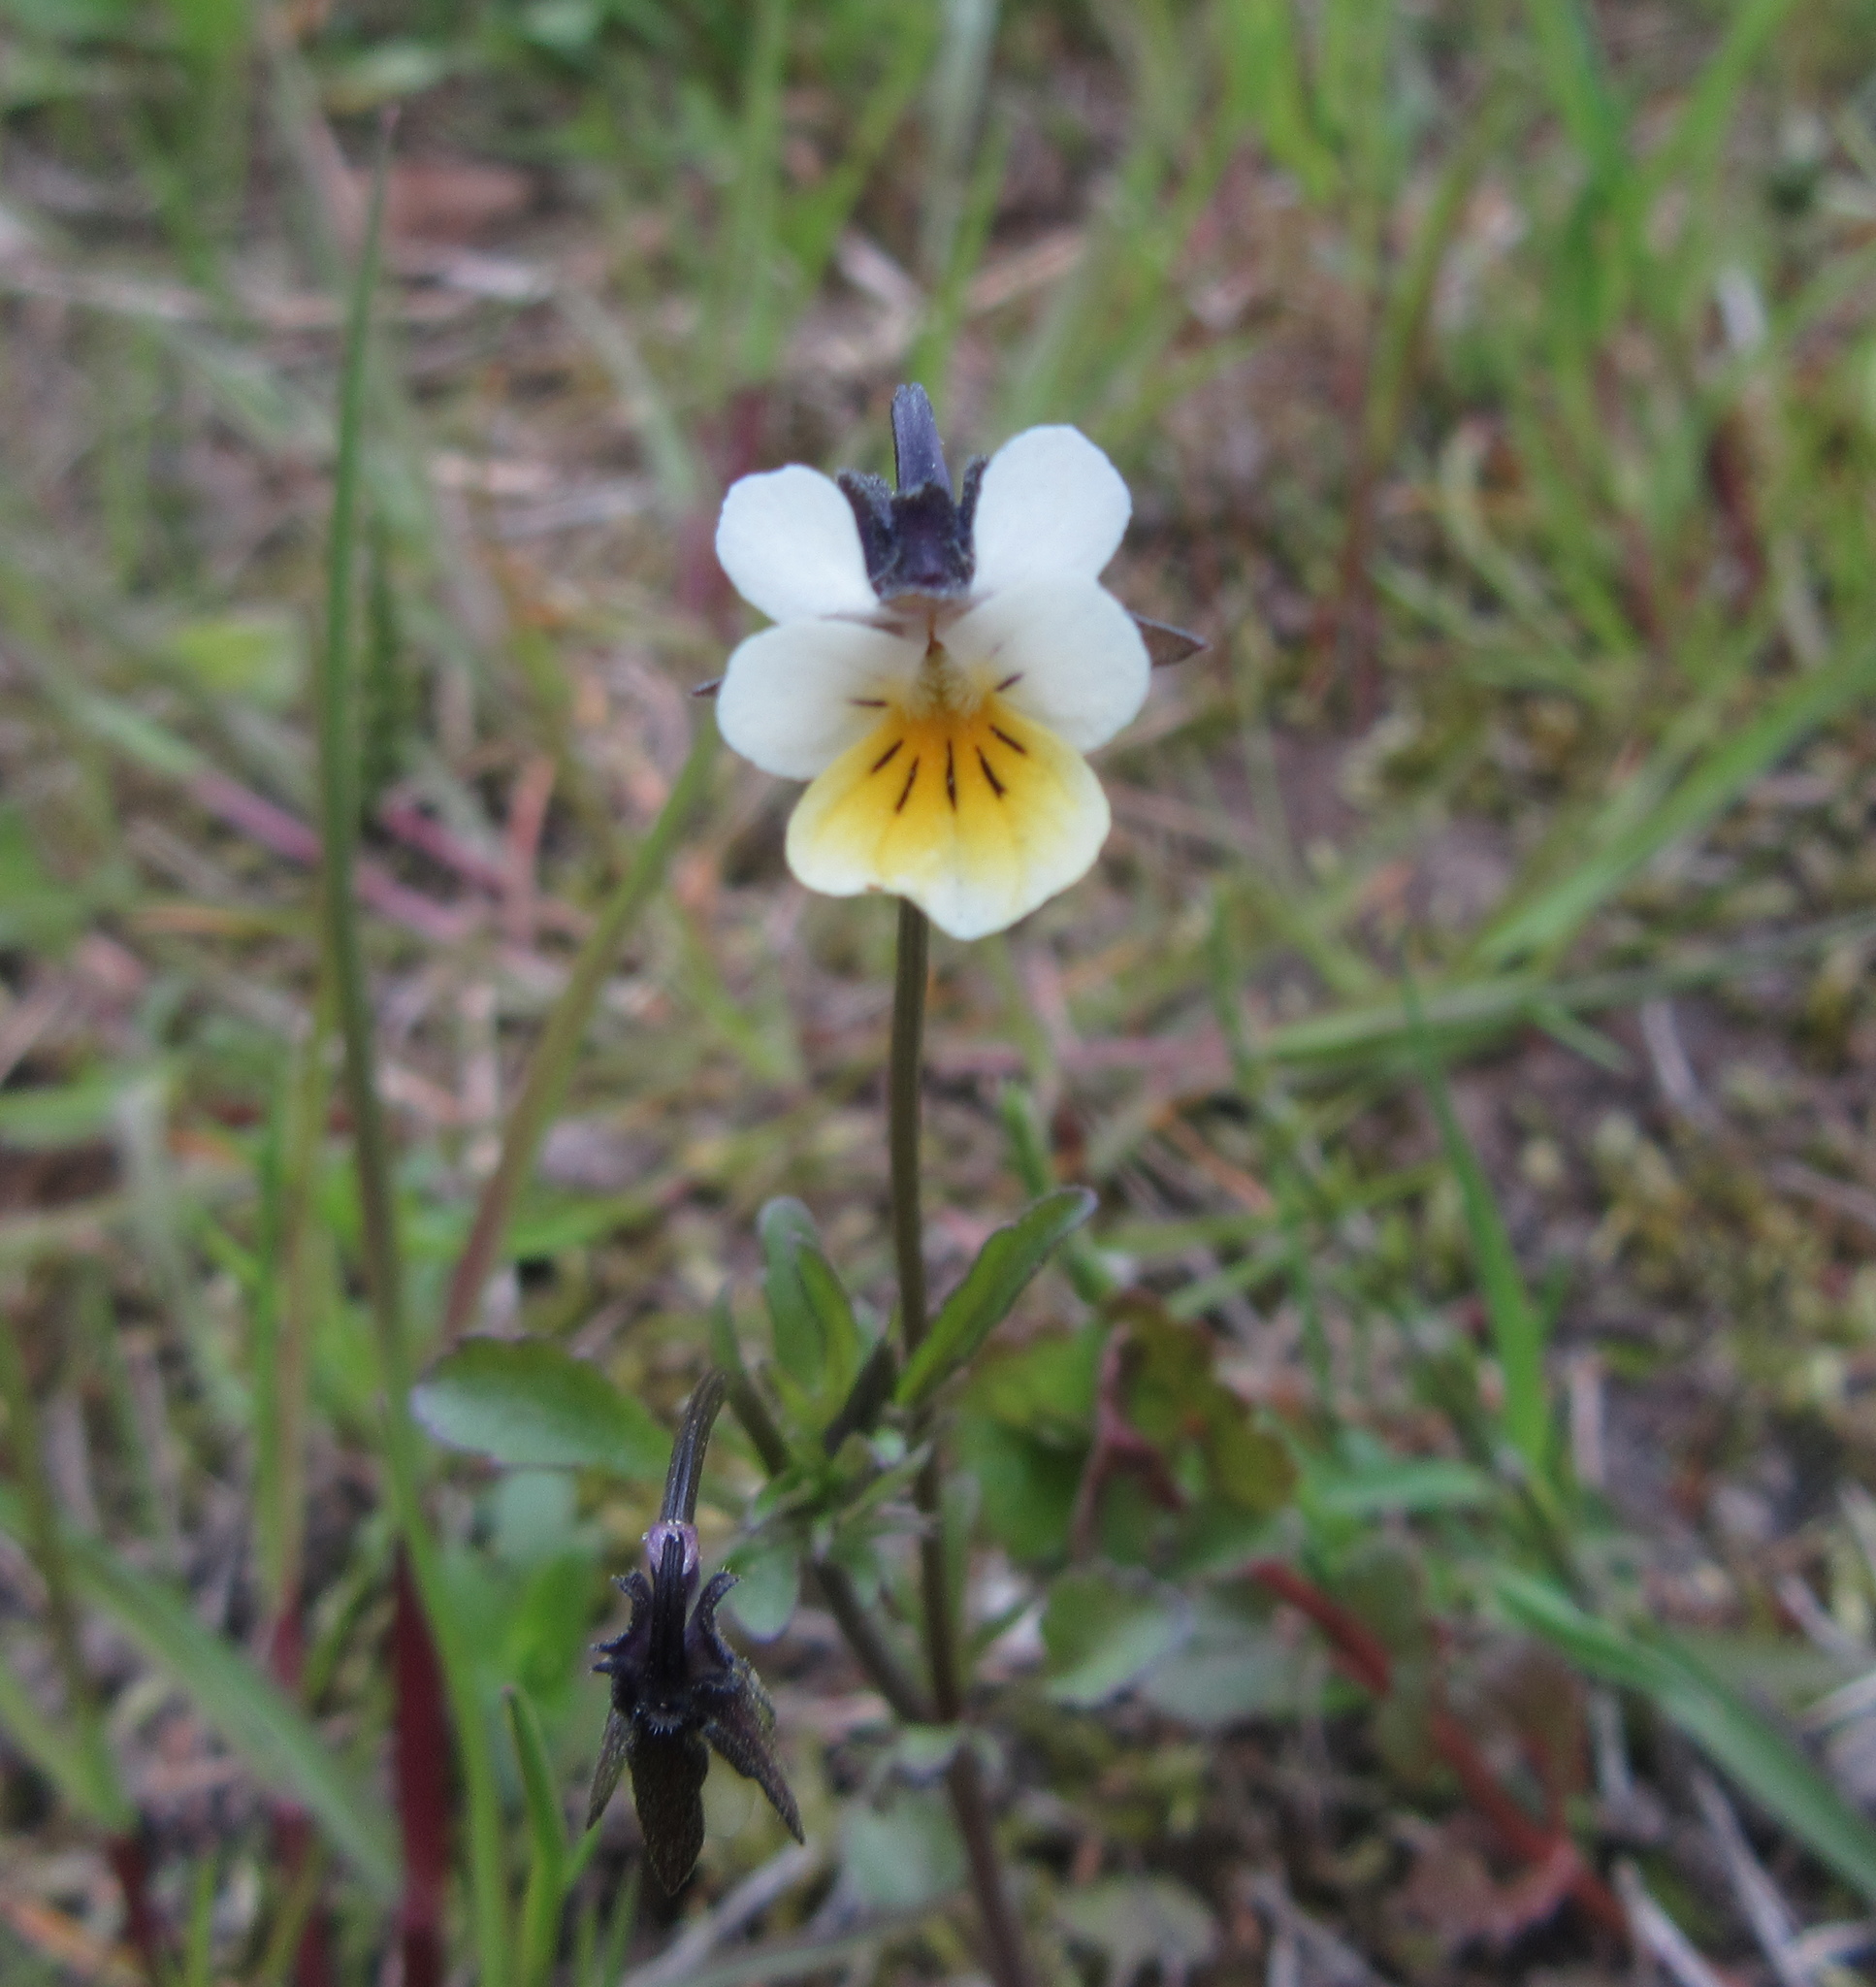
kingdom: Plantae
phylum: Tracheophyta
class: Magnoliopsida
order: Malpighiales
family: Violaceae
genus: Viola
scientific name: Viola arvensis
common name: Field pansy
